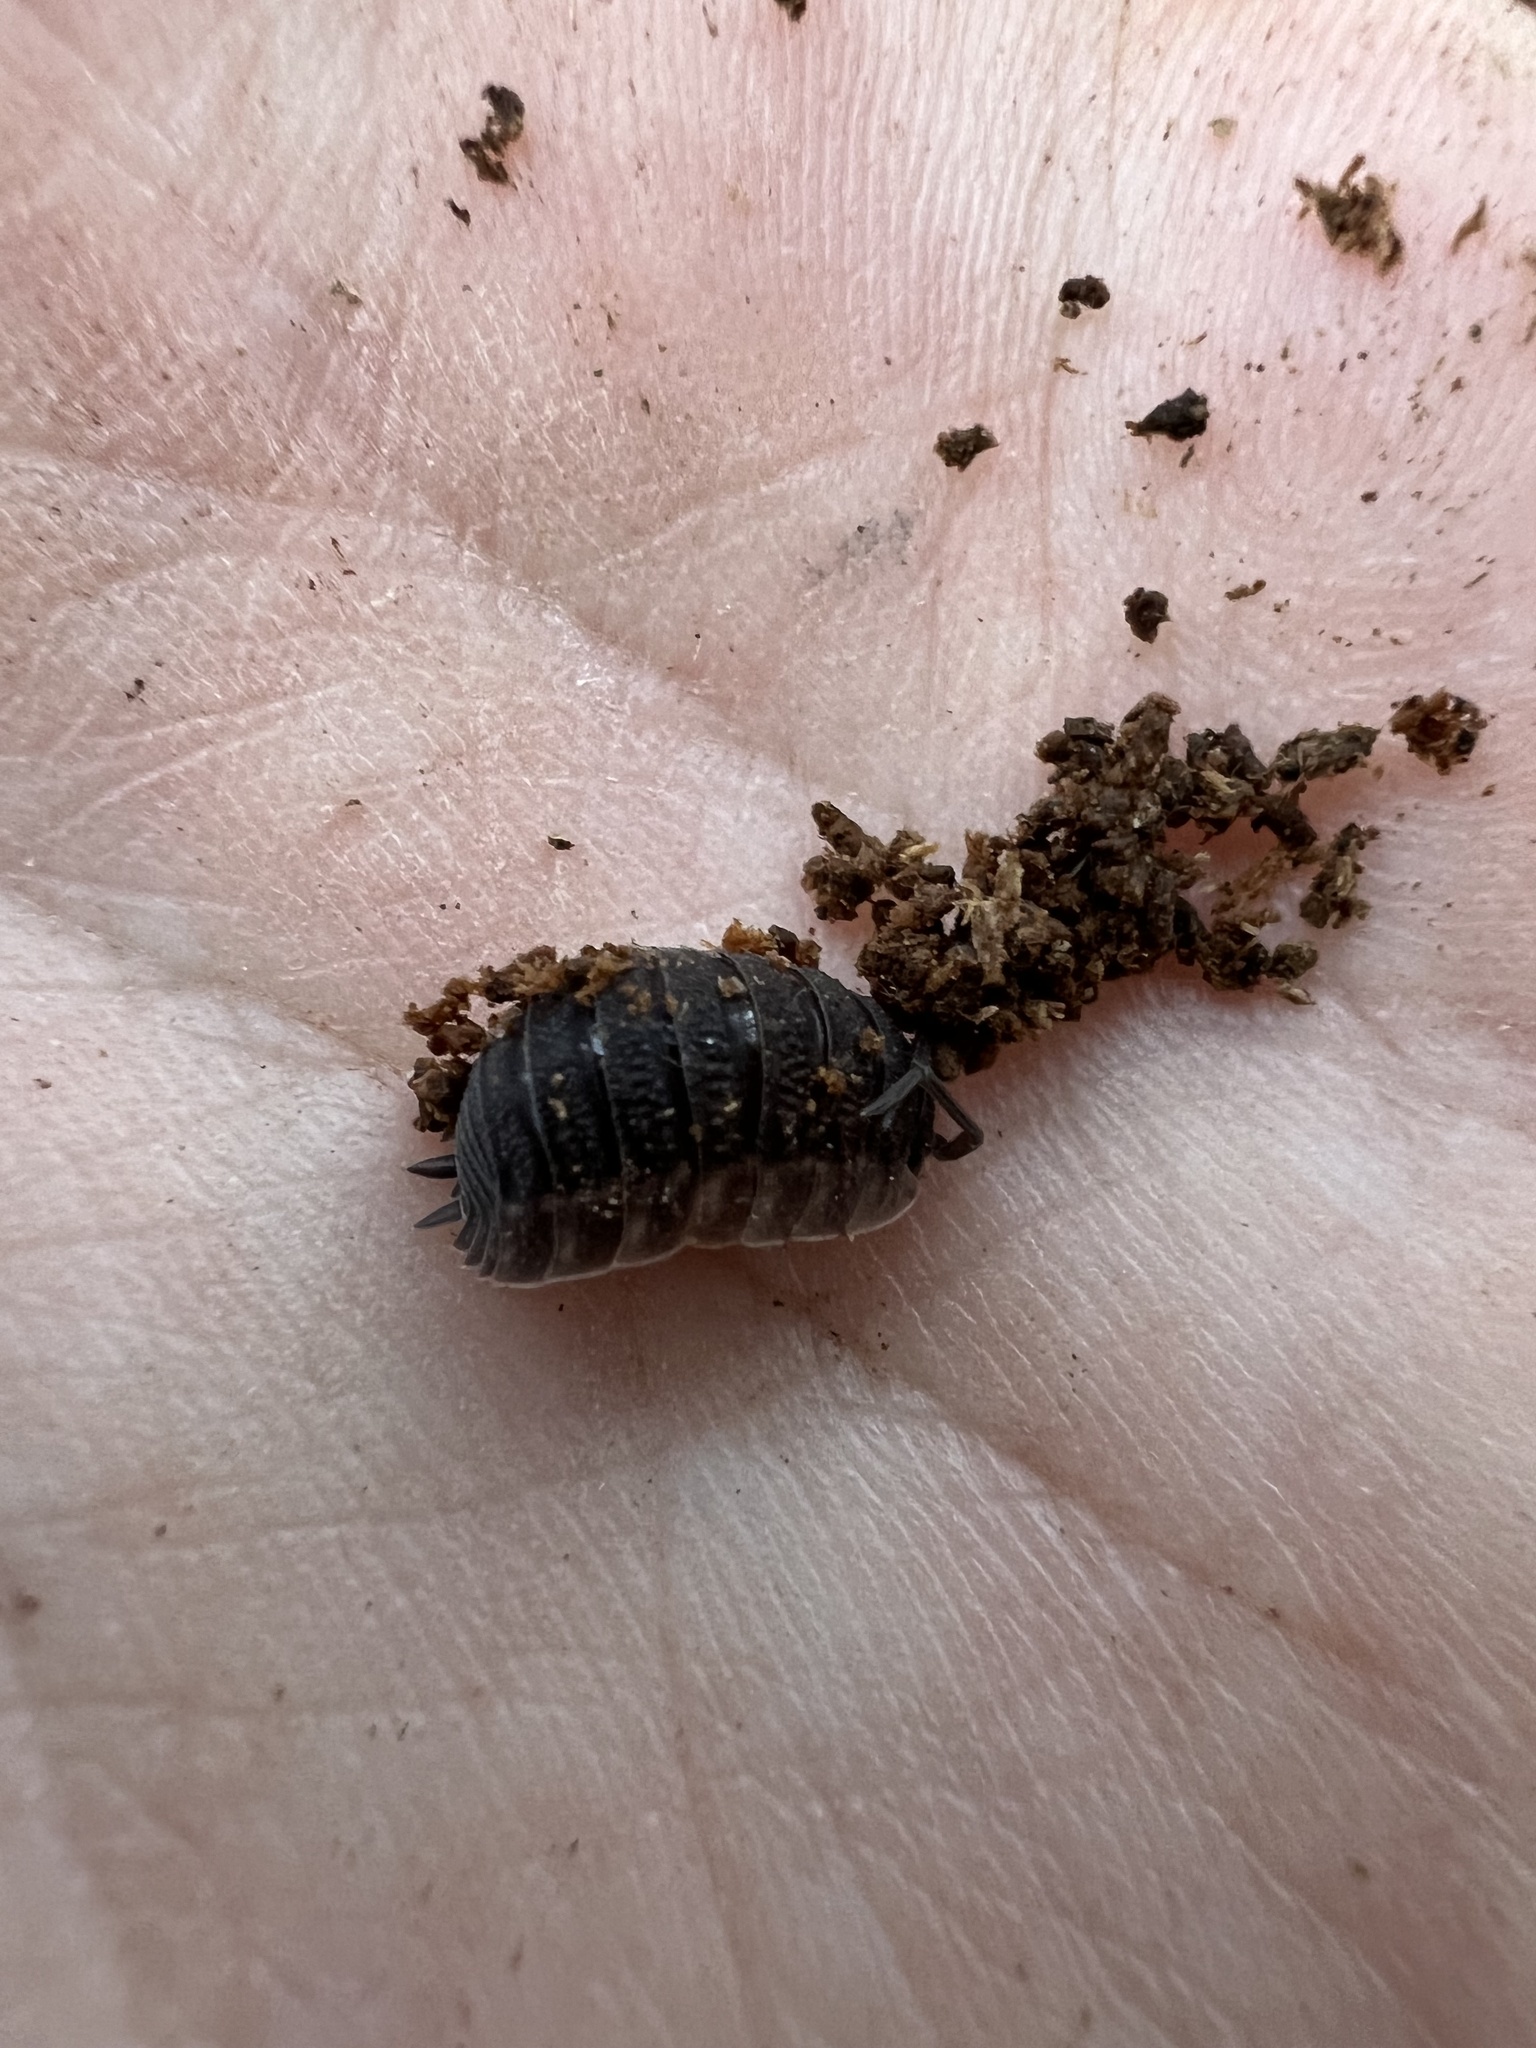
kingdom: Animalia
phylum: Arthropoda
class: Malacostraca
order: Isopoda
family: Porcellionidae
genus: Porcellio
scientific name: Porcellio scaber
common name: Common rough woodlouse
